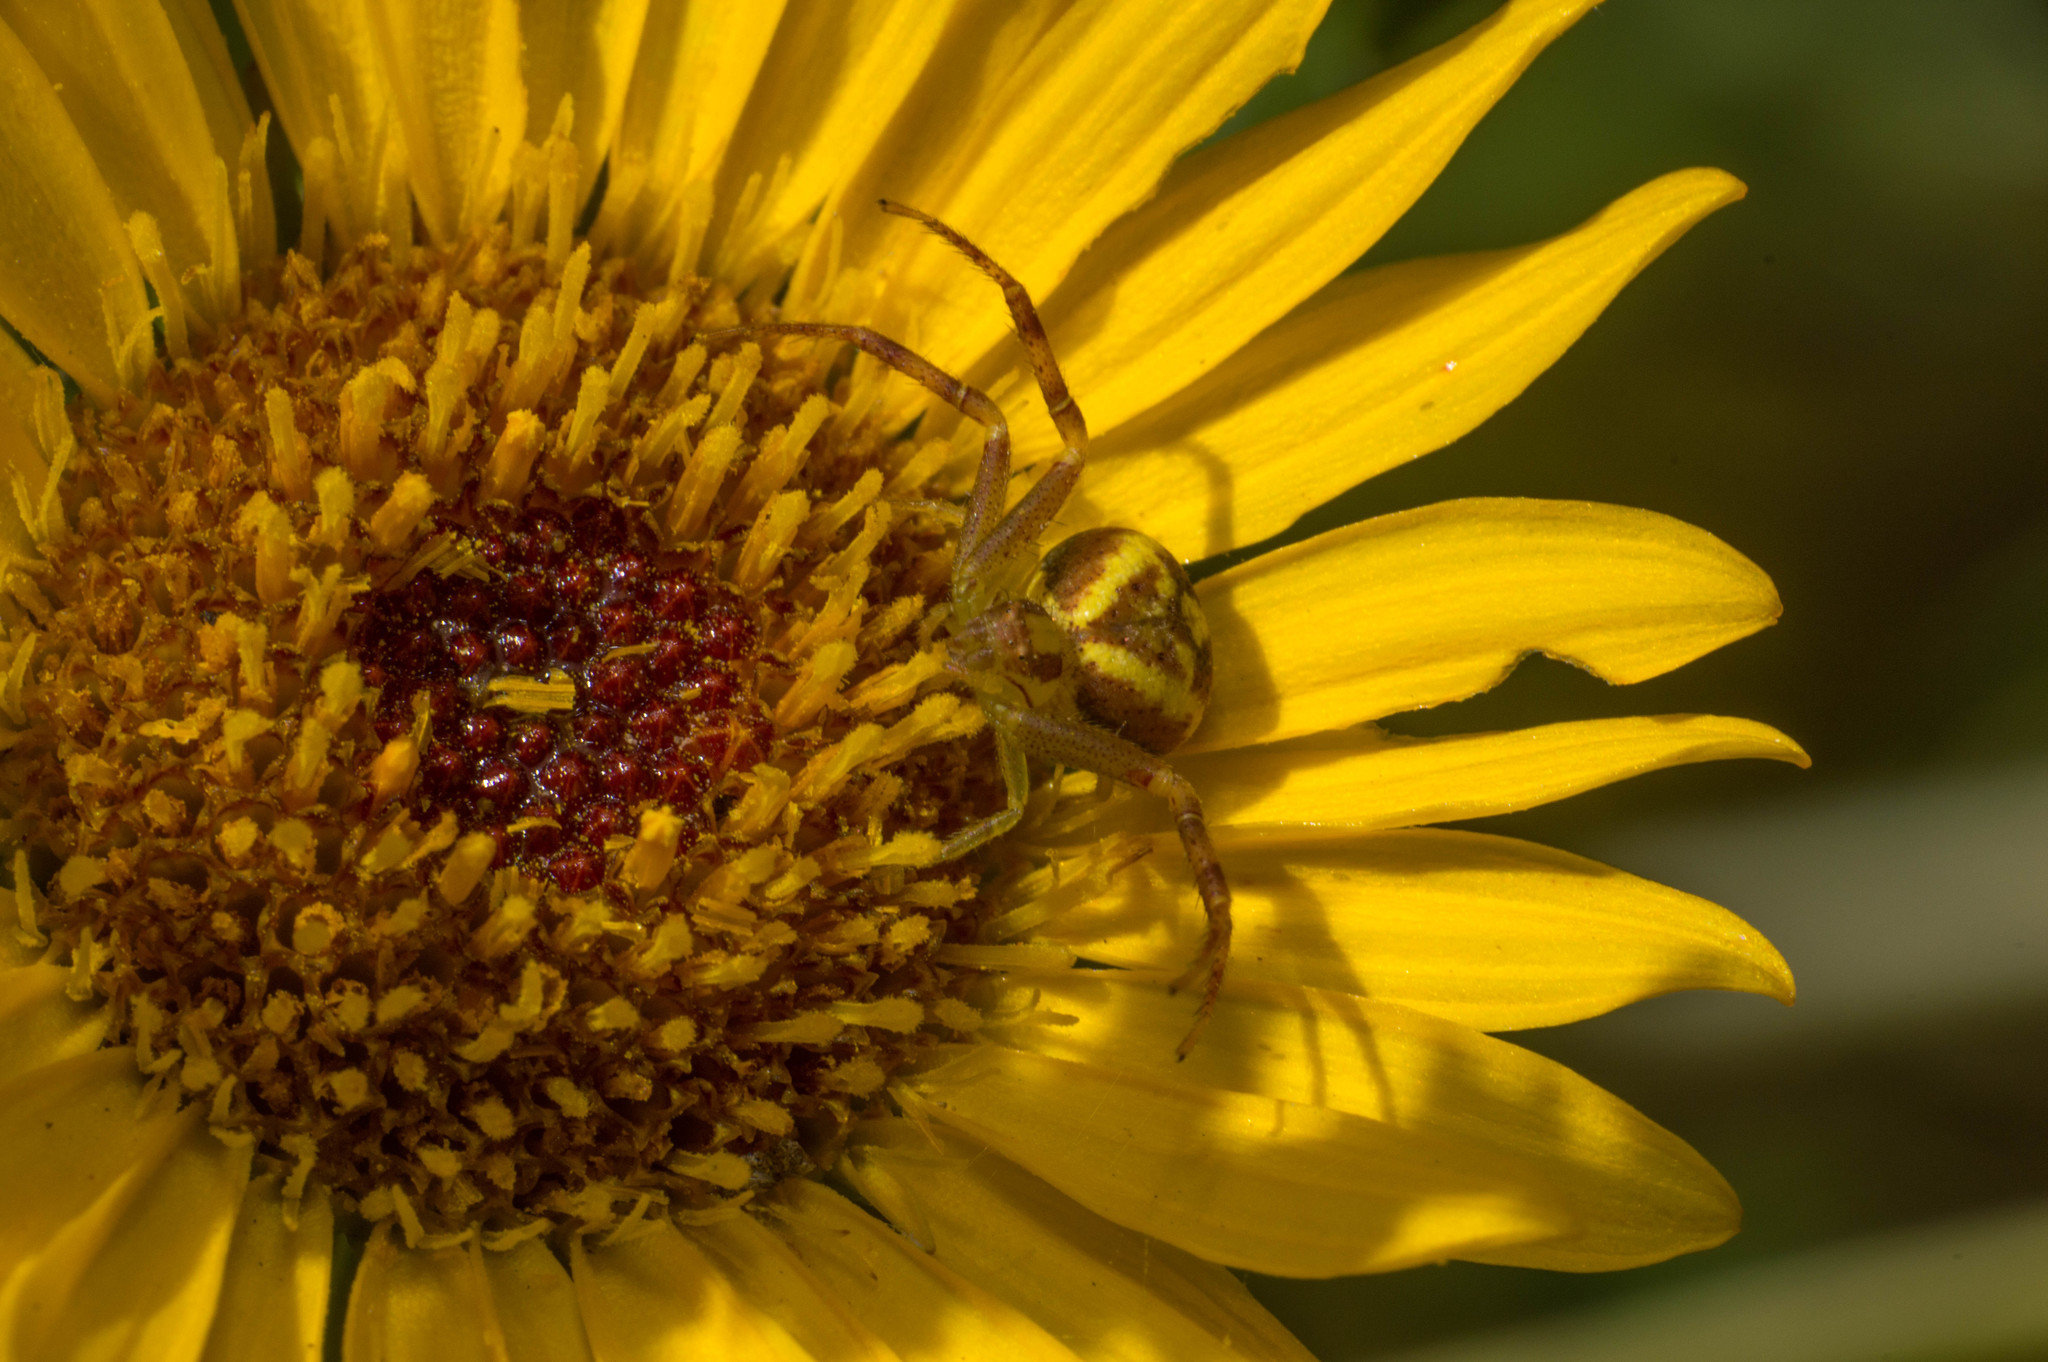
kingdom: Animalia
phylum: Arthropoda
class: Arachnida
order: Araneae
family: Thomisidae
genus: Misumenops
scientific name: Misumenops
